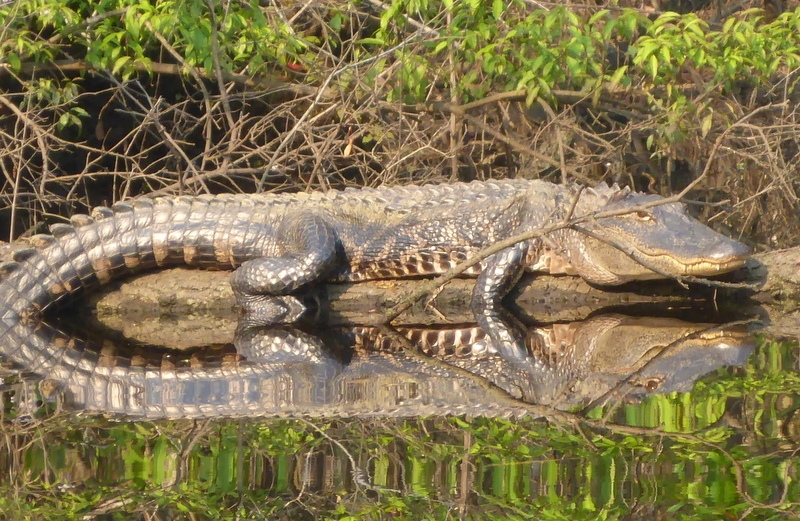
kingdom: Animalia
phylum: Chordata
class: Crocodylia
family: Alligatoridae
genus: Alligator
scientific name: Alligator mississippiensis
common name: American alligator
